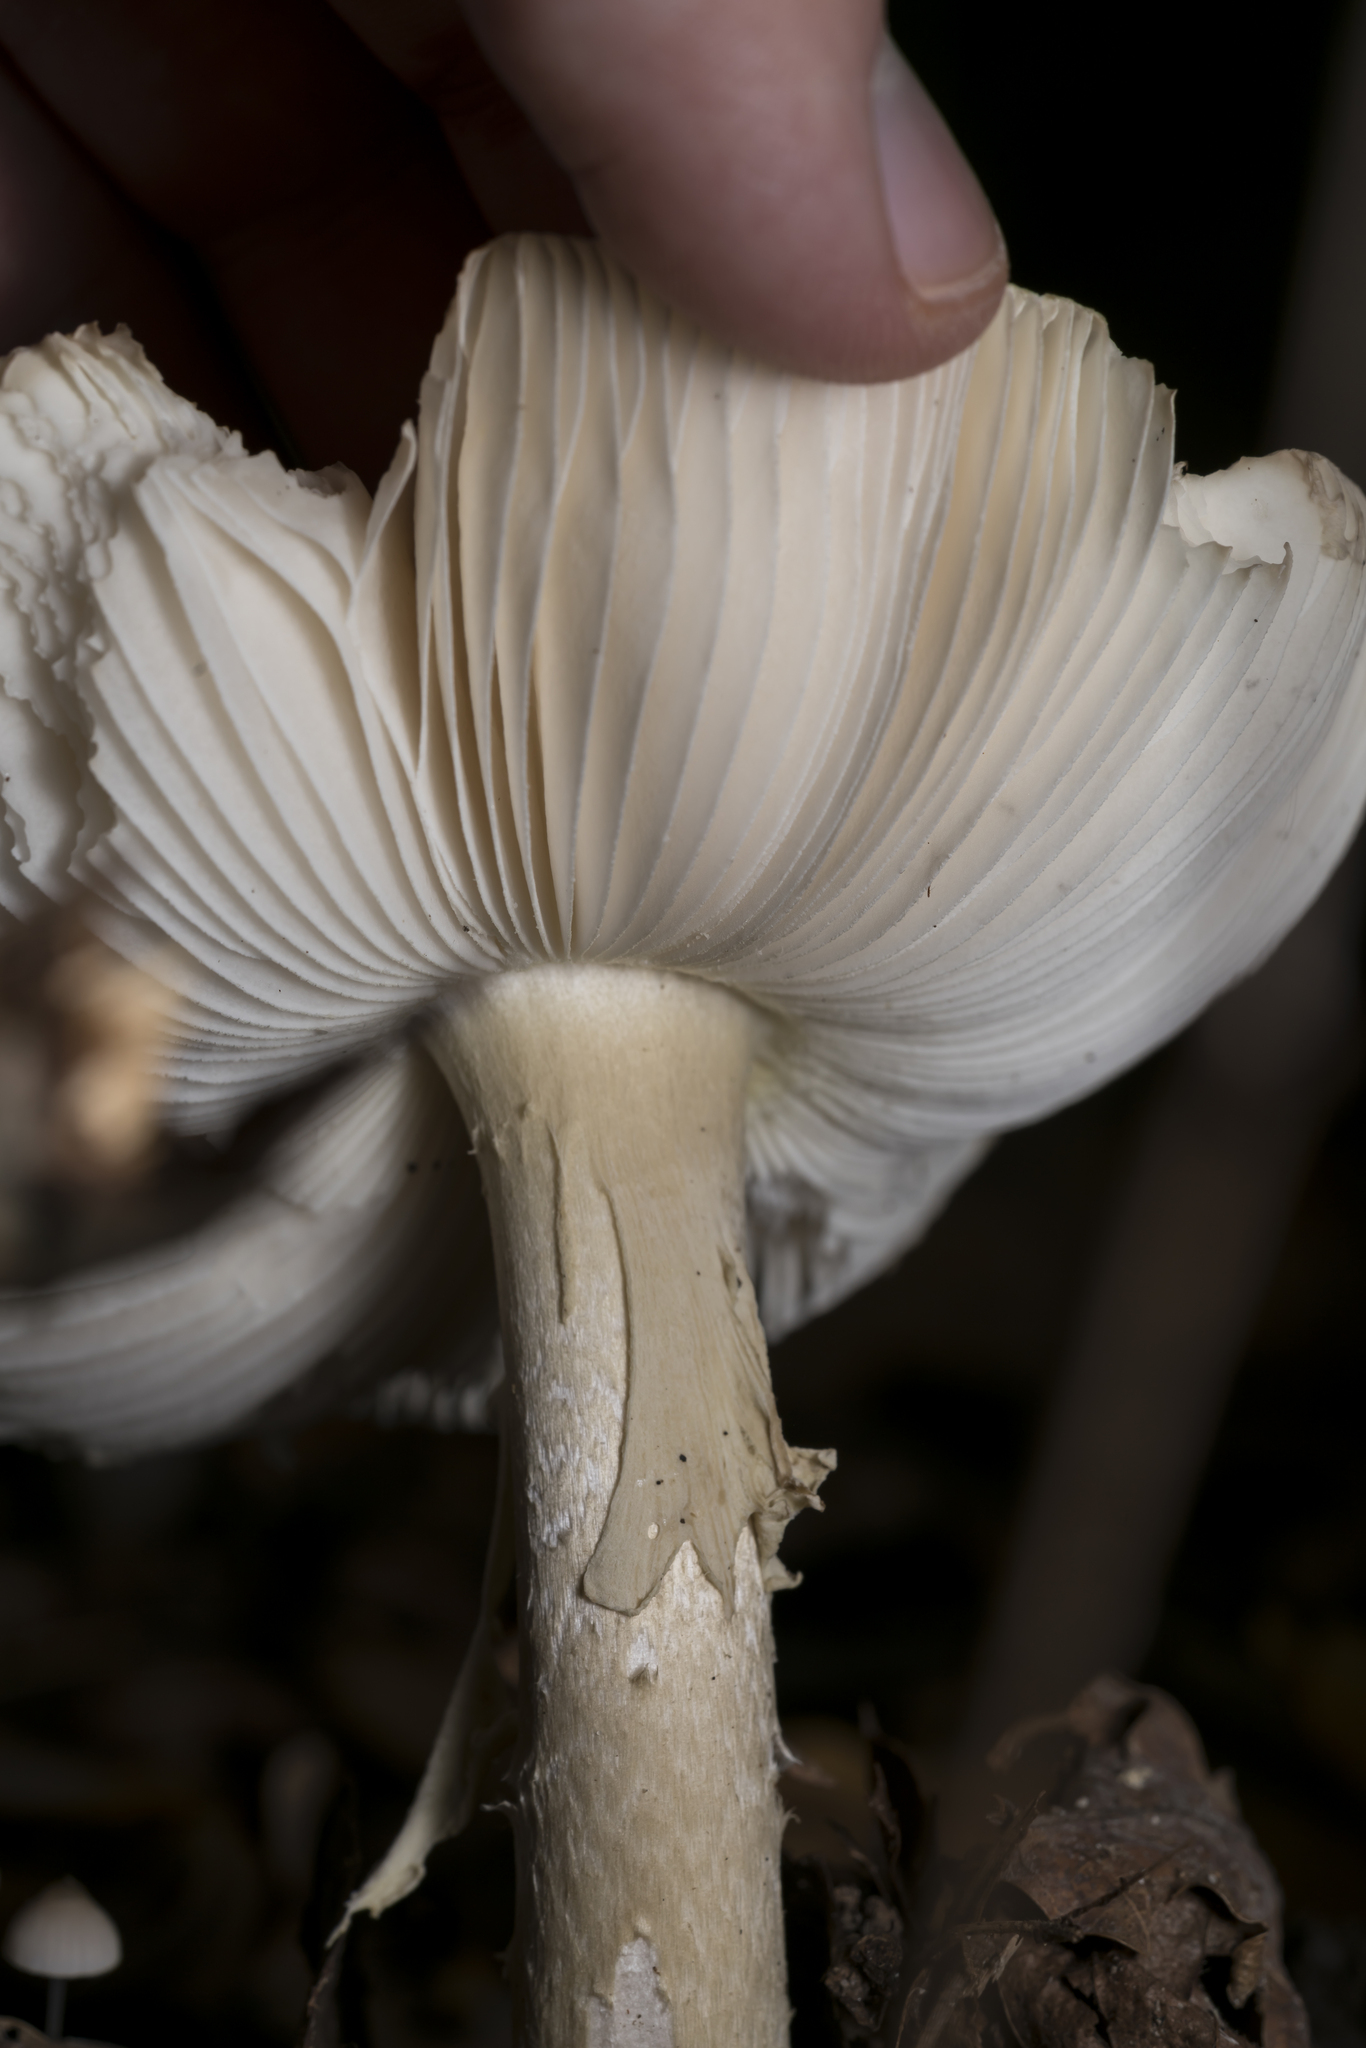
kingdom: Fungi
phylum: Basidiomycota
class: Agaricomycetes
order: Agaricales
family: Amanitaceae
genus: Amanita
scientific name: Amanita phalloides
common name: Death cap
